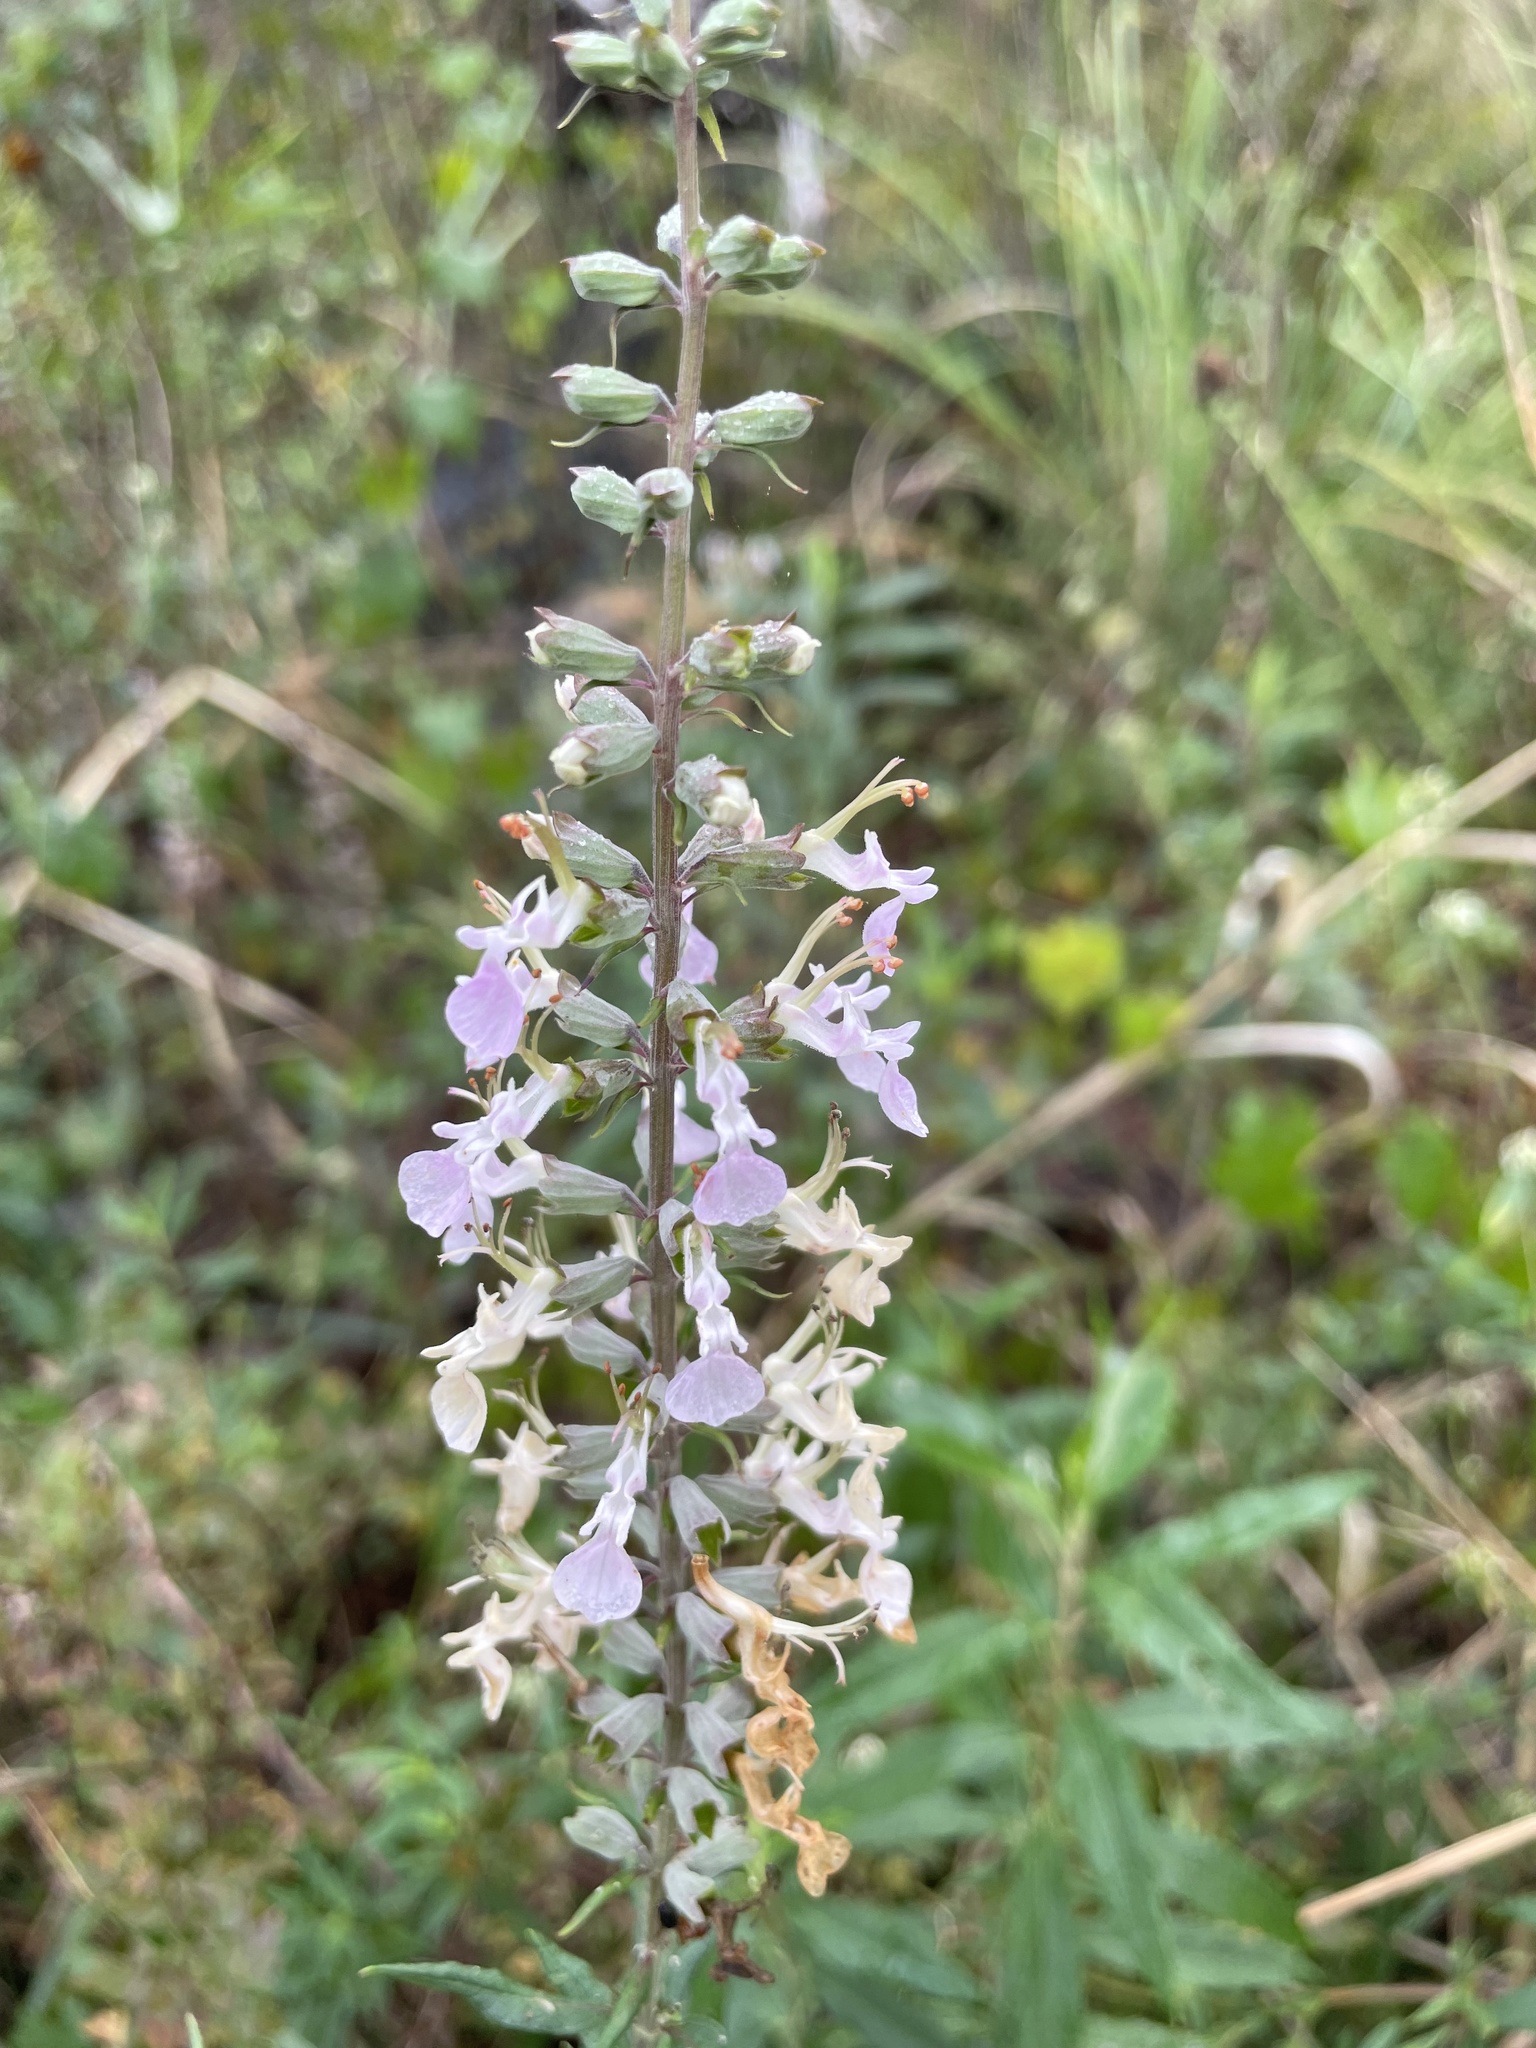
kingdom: Plantae
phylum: Tracheophyta
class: Magnoliopsida
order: Lamiales
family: Lamiaceae
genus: Teucrium
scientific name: Teucrium canadense
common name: American germander
